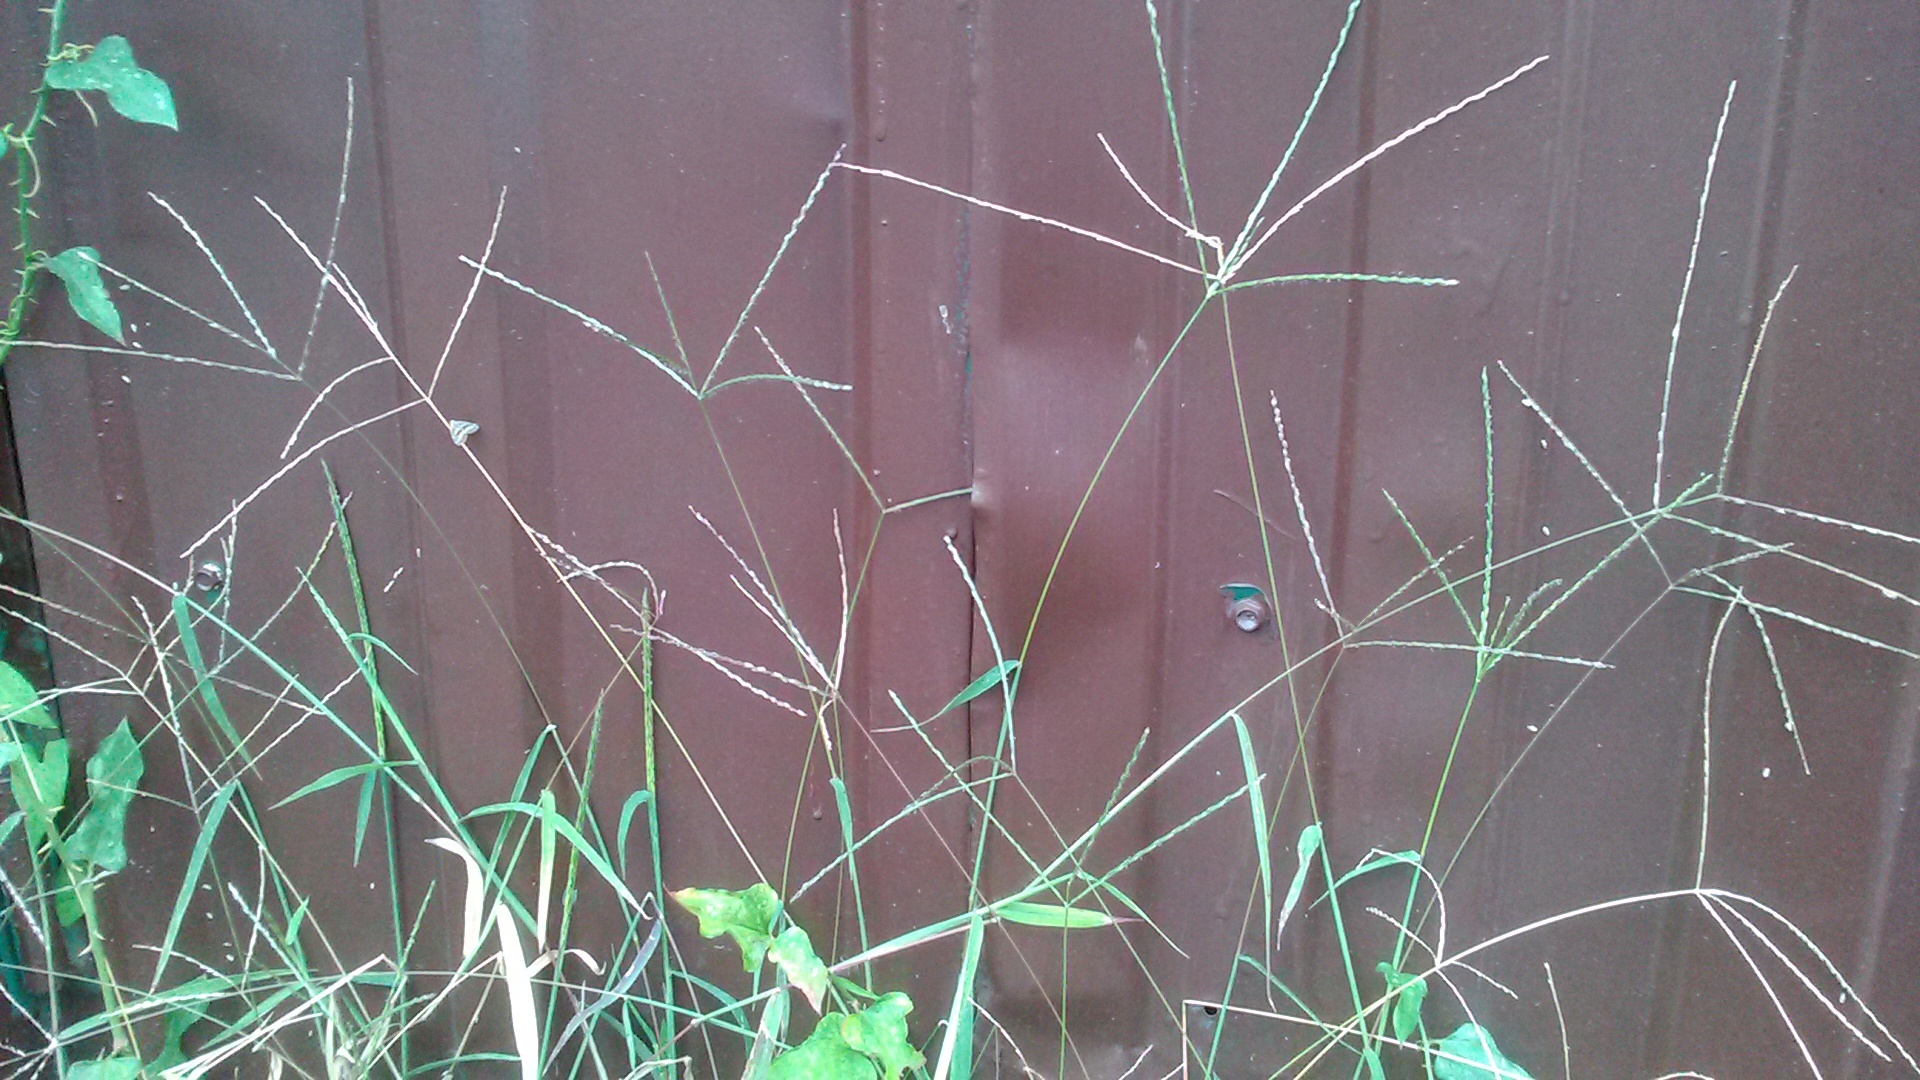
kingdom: Plantae
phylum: Tracheophyta
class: Liliopsida
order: Poales
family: Poaceae
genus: Digitaria
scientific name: Digitaria sanguinalis
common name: Hairy crabgrass
